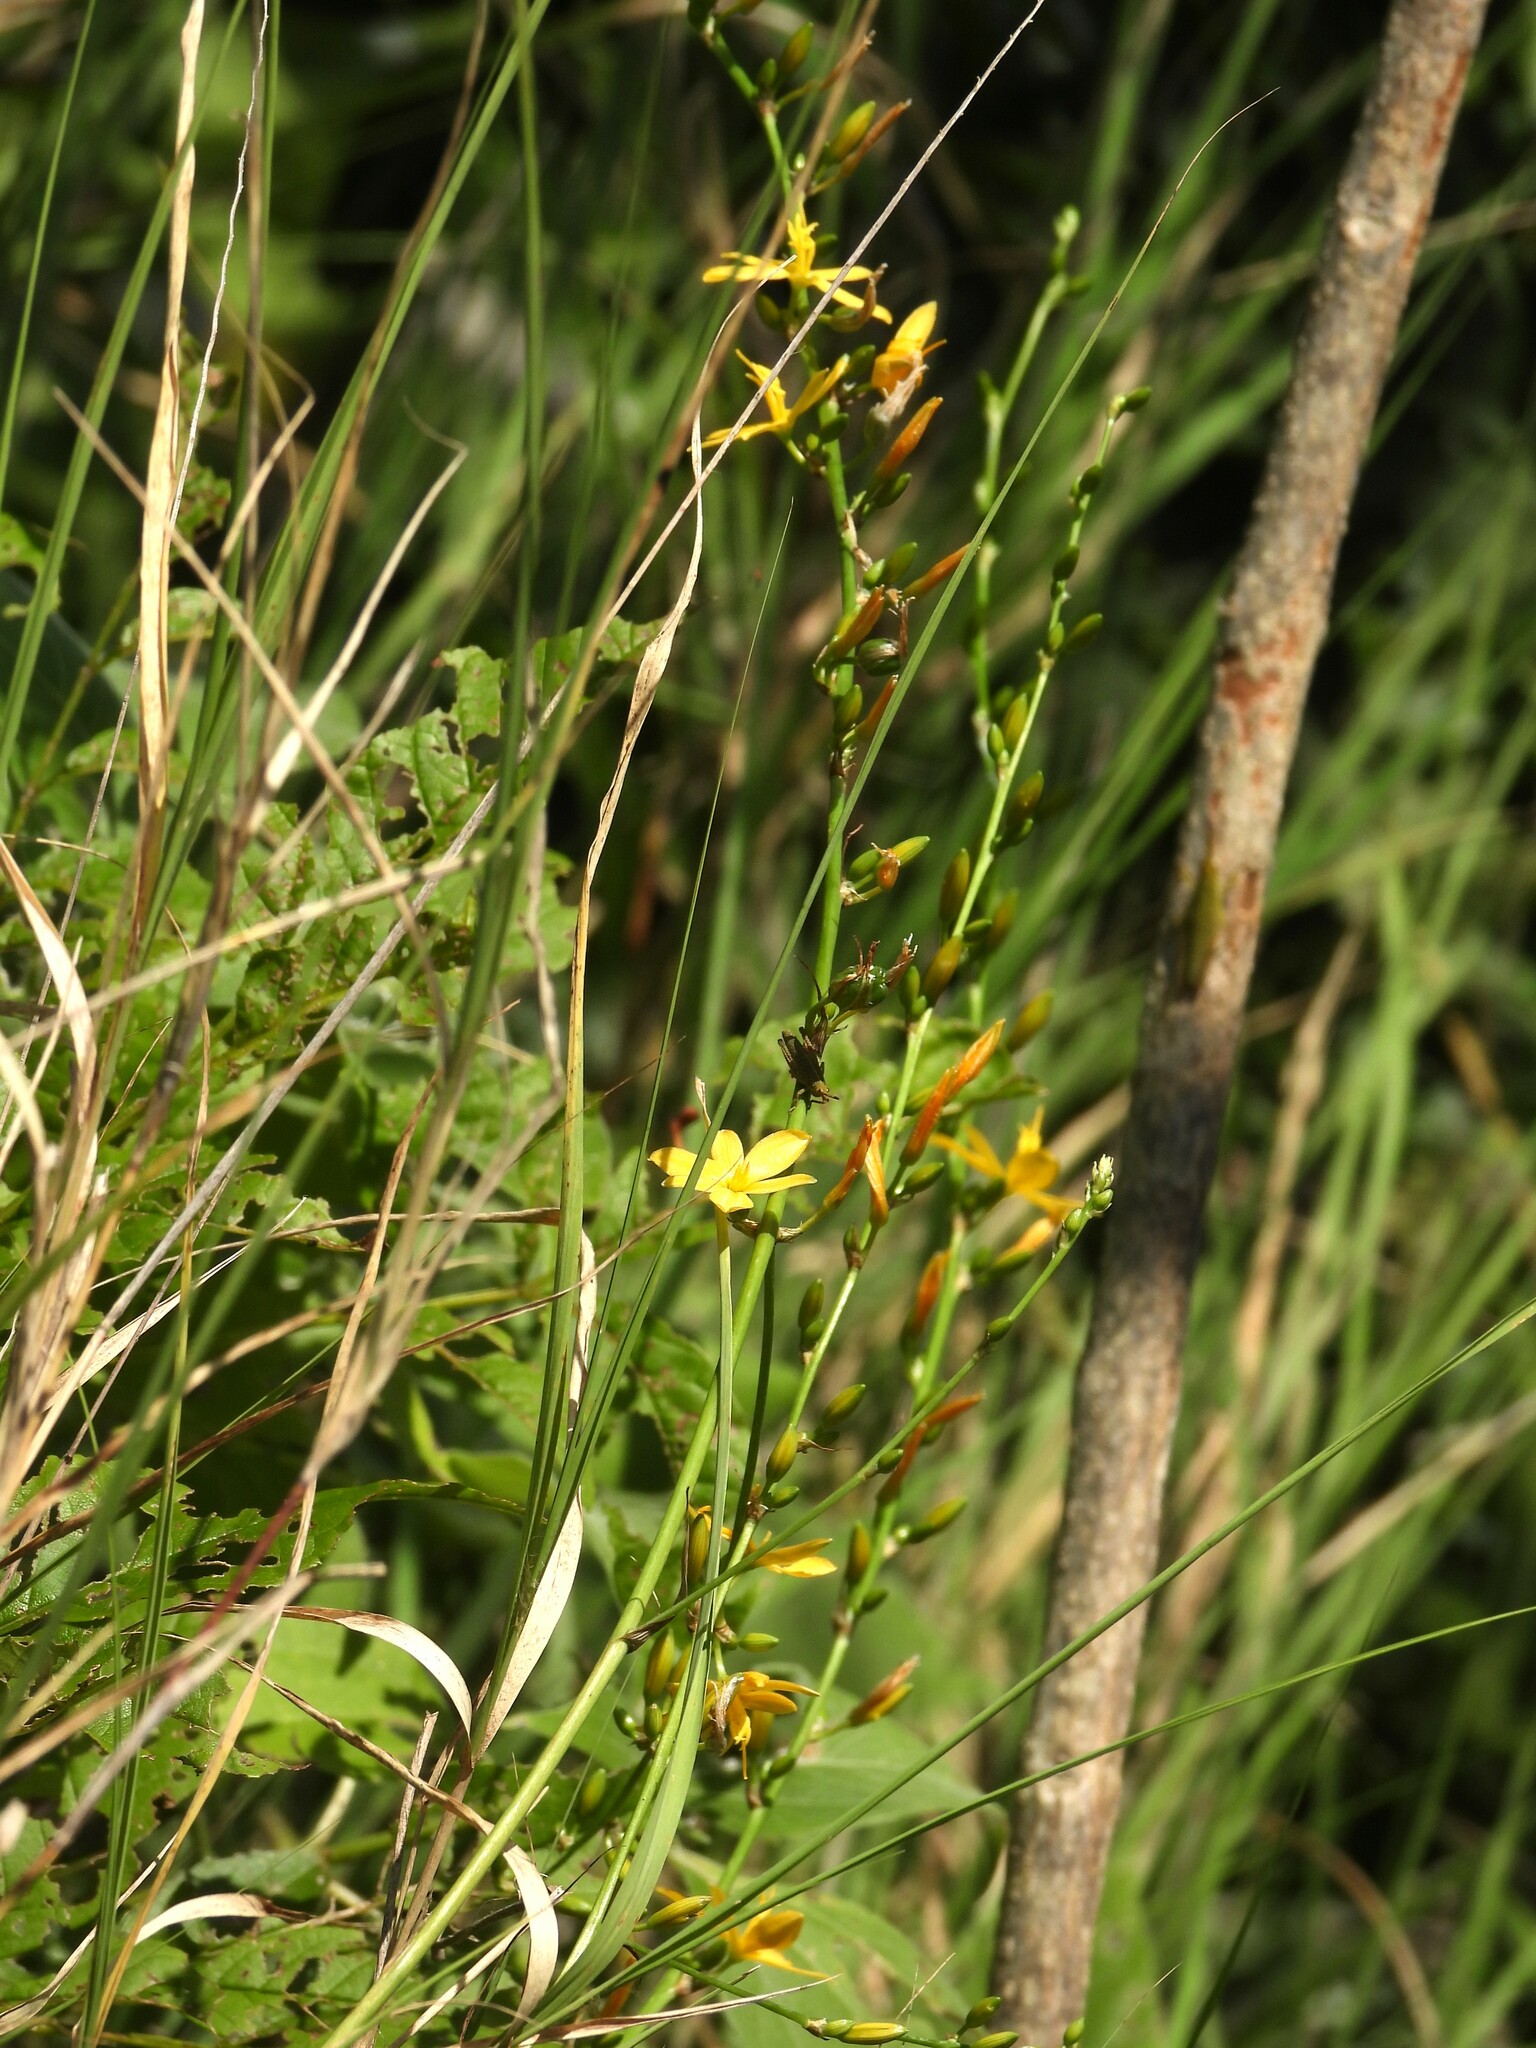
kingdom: Plantae
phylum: Tracheophyta
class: Liliopsida
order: Asparagales
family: Asparagaceae
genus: Echeandia
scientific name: Echeandia breedlovei
